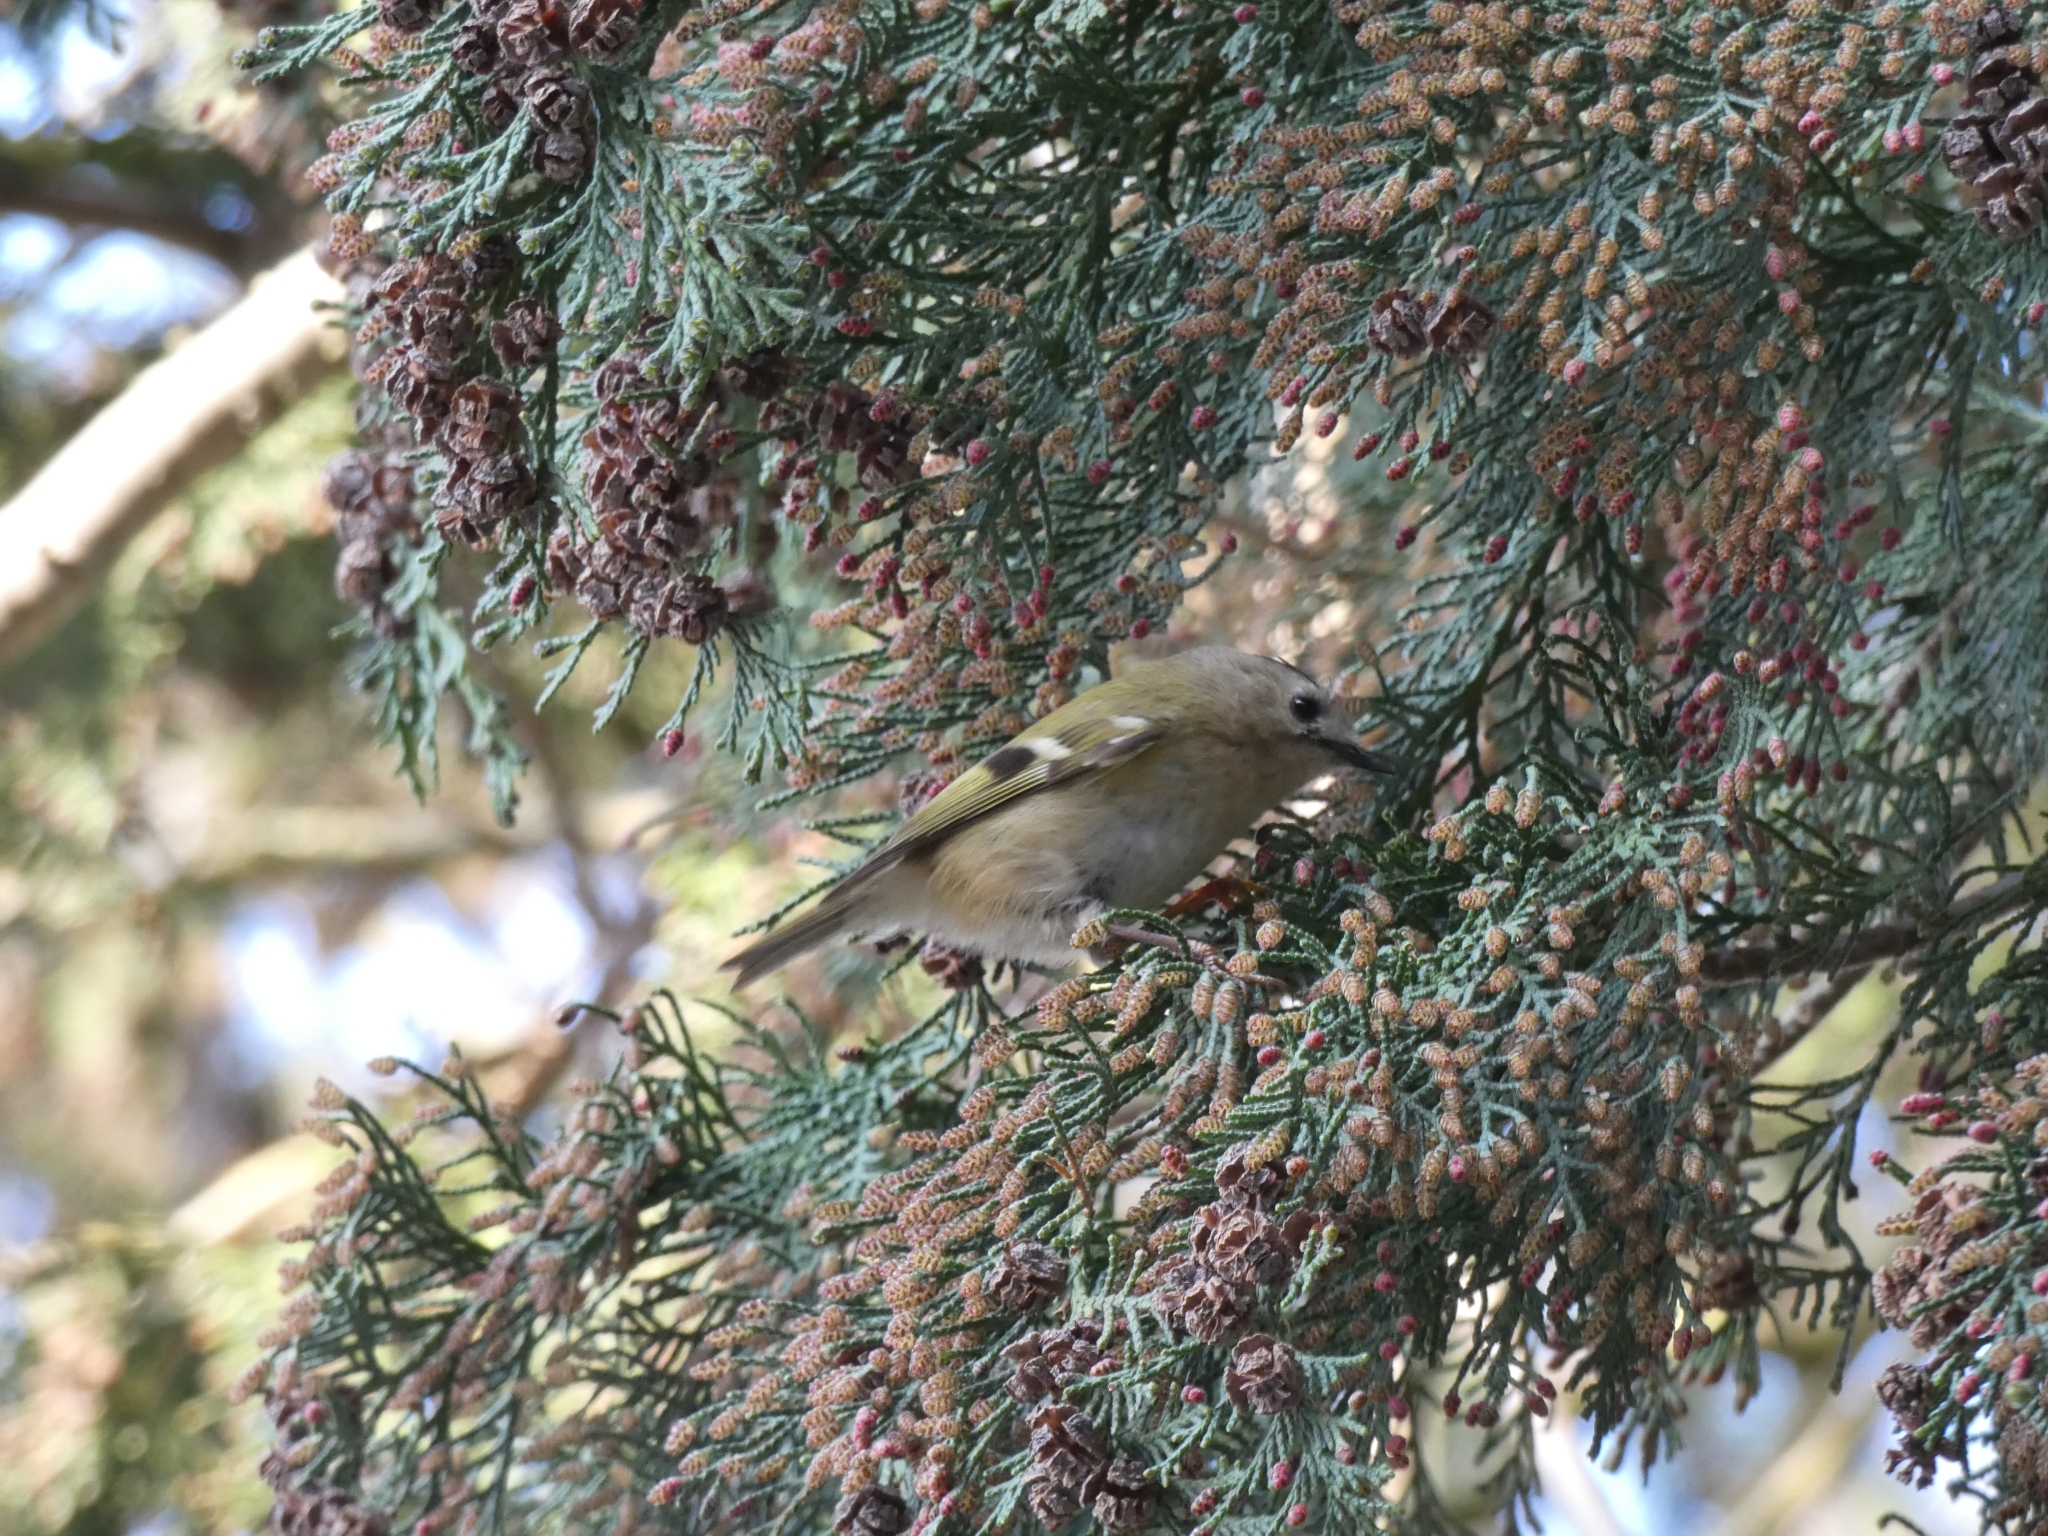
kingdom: Animalia
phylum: Chordata
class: Aves
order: Passeriformes
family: Regulidae
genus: Regulus
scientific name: Regulus regulus
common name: Goldcrest
